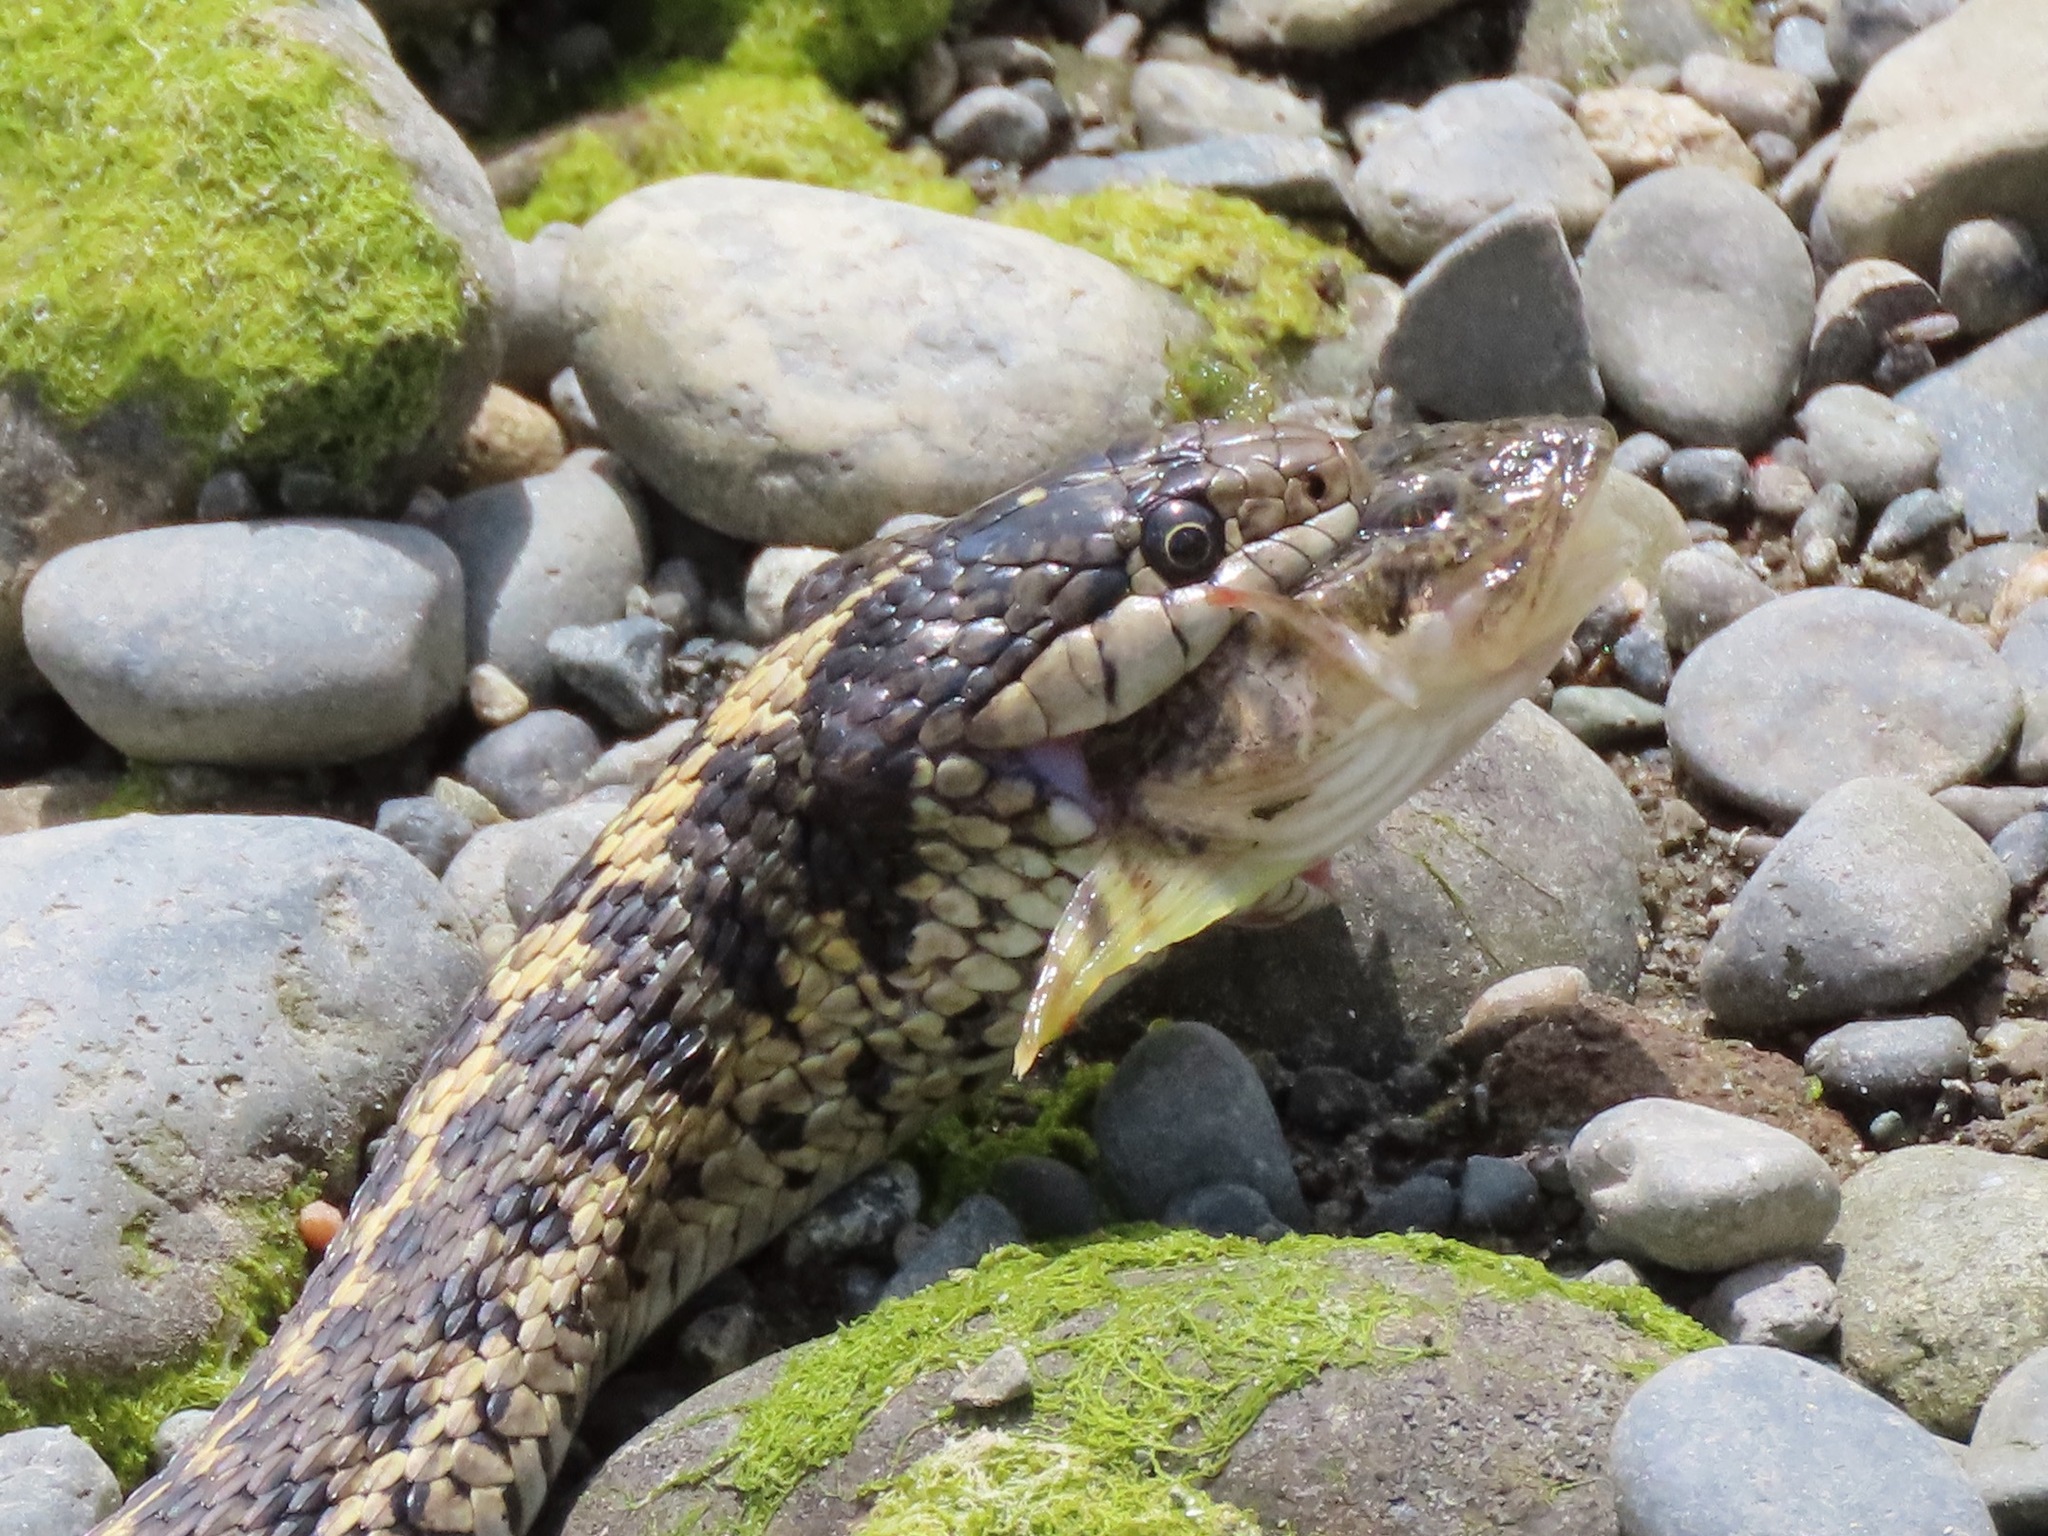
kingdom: Animalia
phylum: Chordata
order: Scorpaeniformes
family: Cottidae
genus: Leptocottus
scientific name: Leptocottus armatus
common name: Pacific staghorn sculpin
